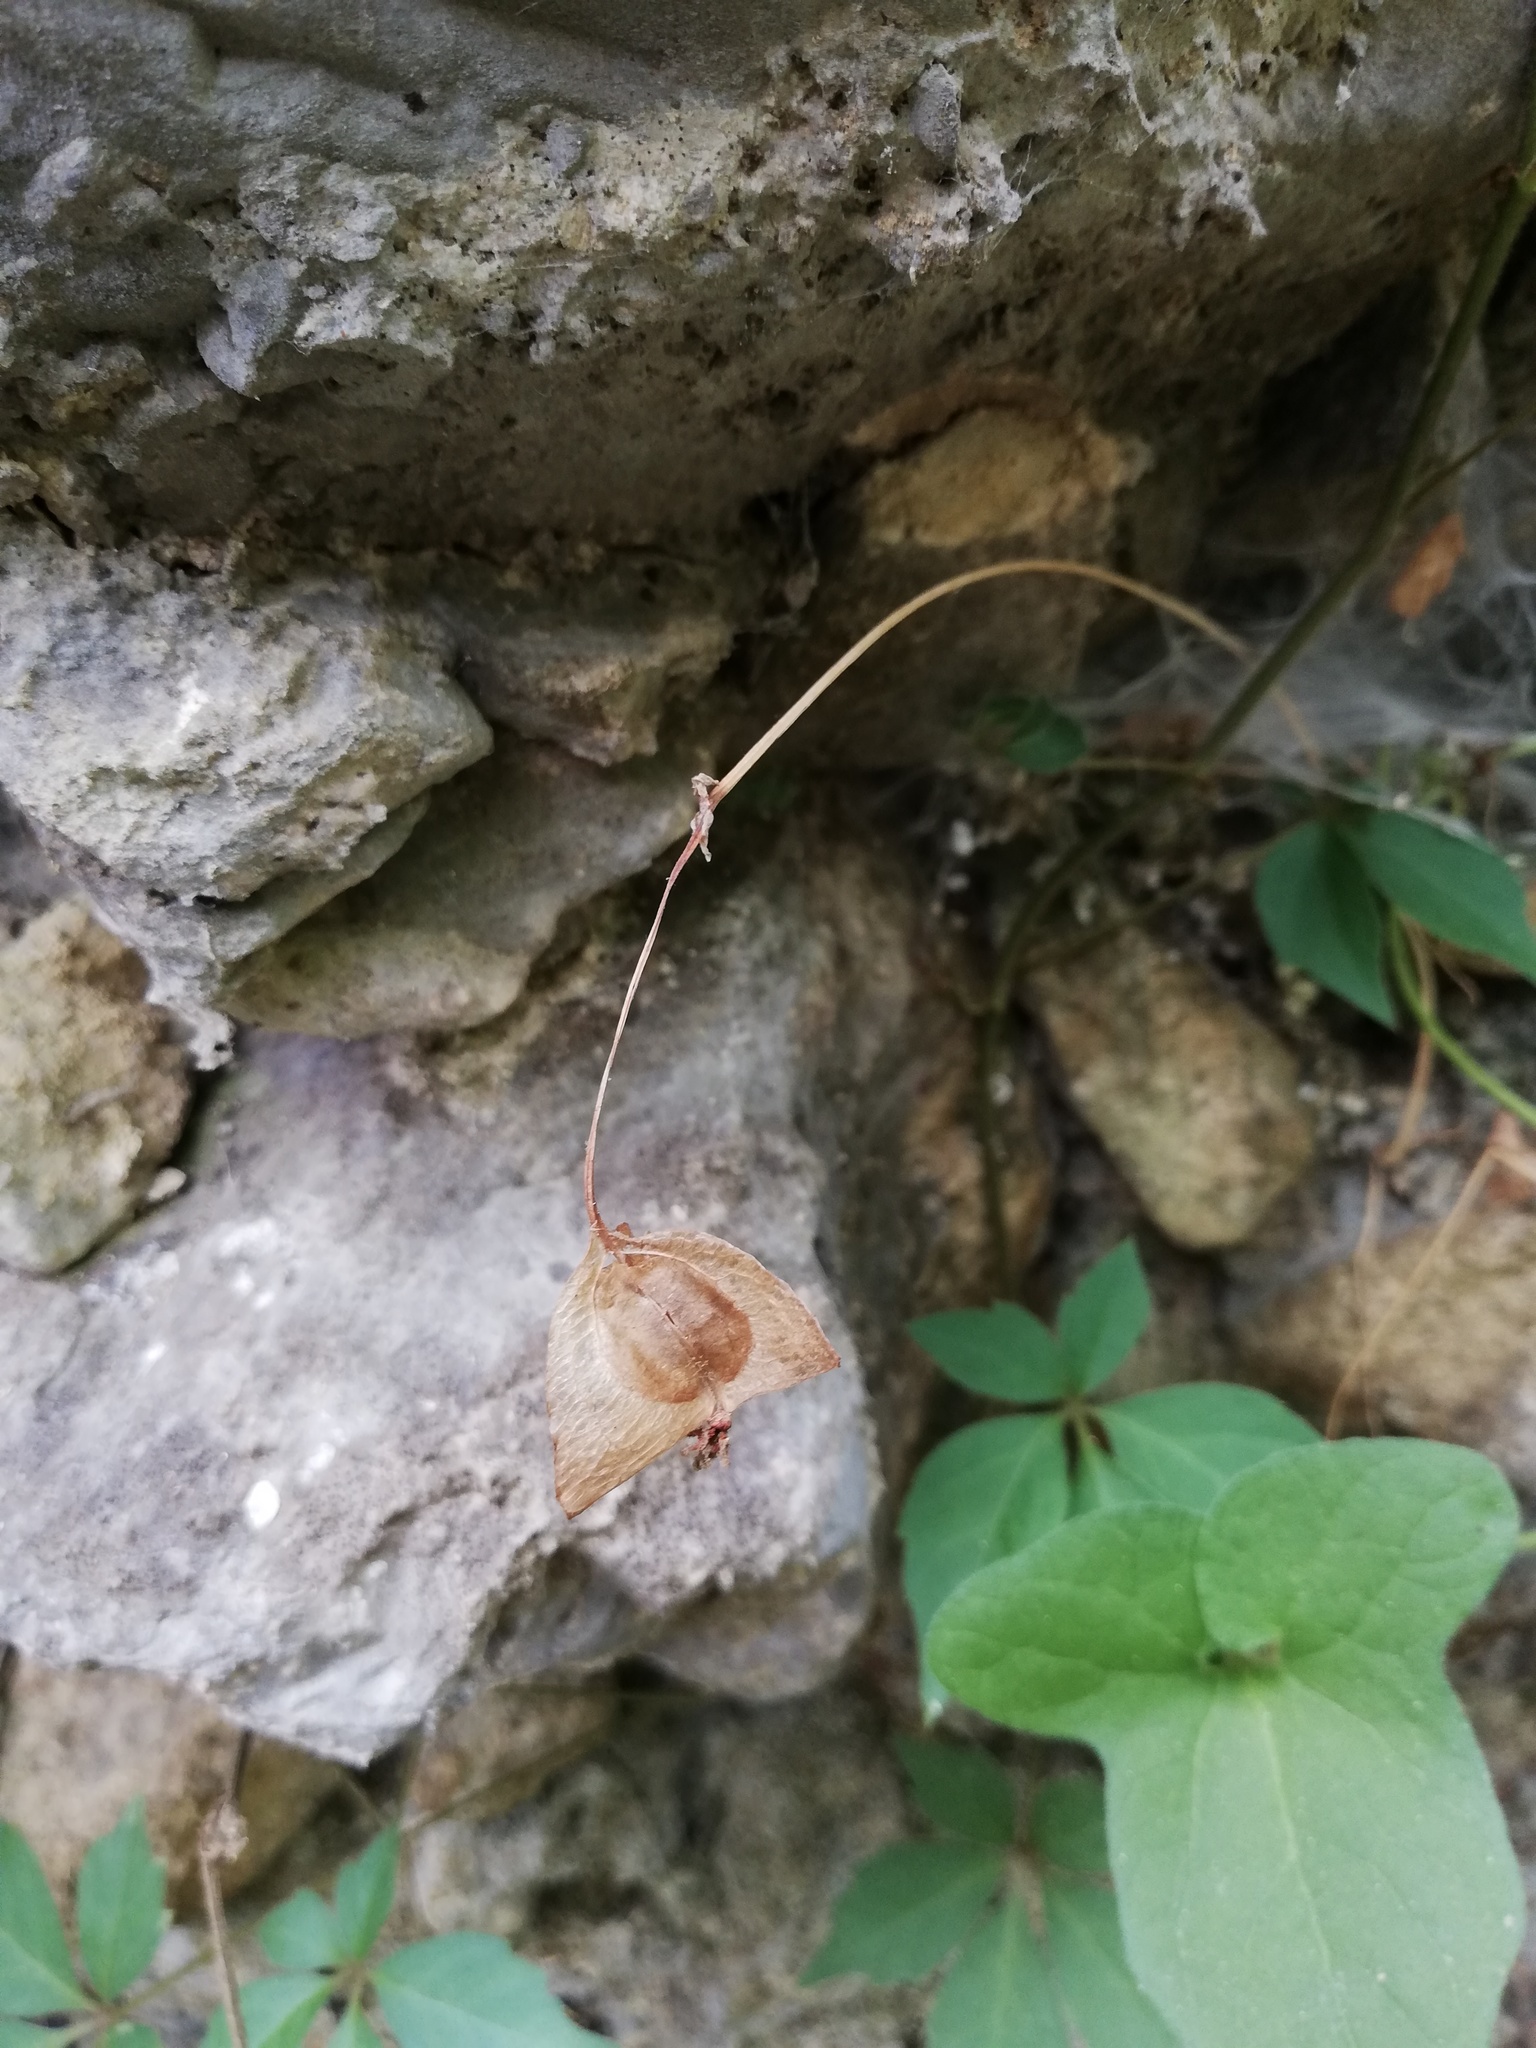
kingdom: Plantae
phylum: Tracheophyta
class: Magnoliopsida
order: Cucurbitales
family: Begoniaceae
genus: Begonia
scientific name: Begonia uniflora
